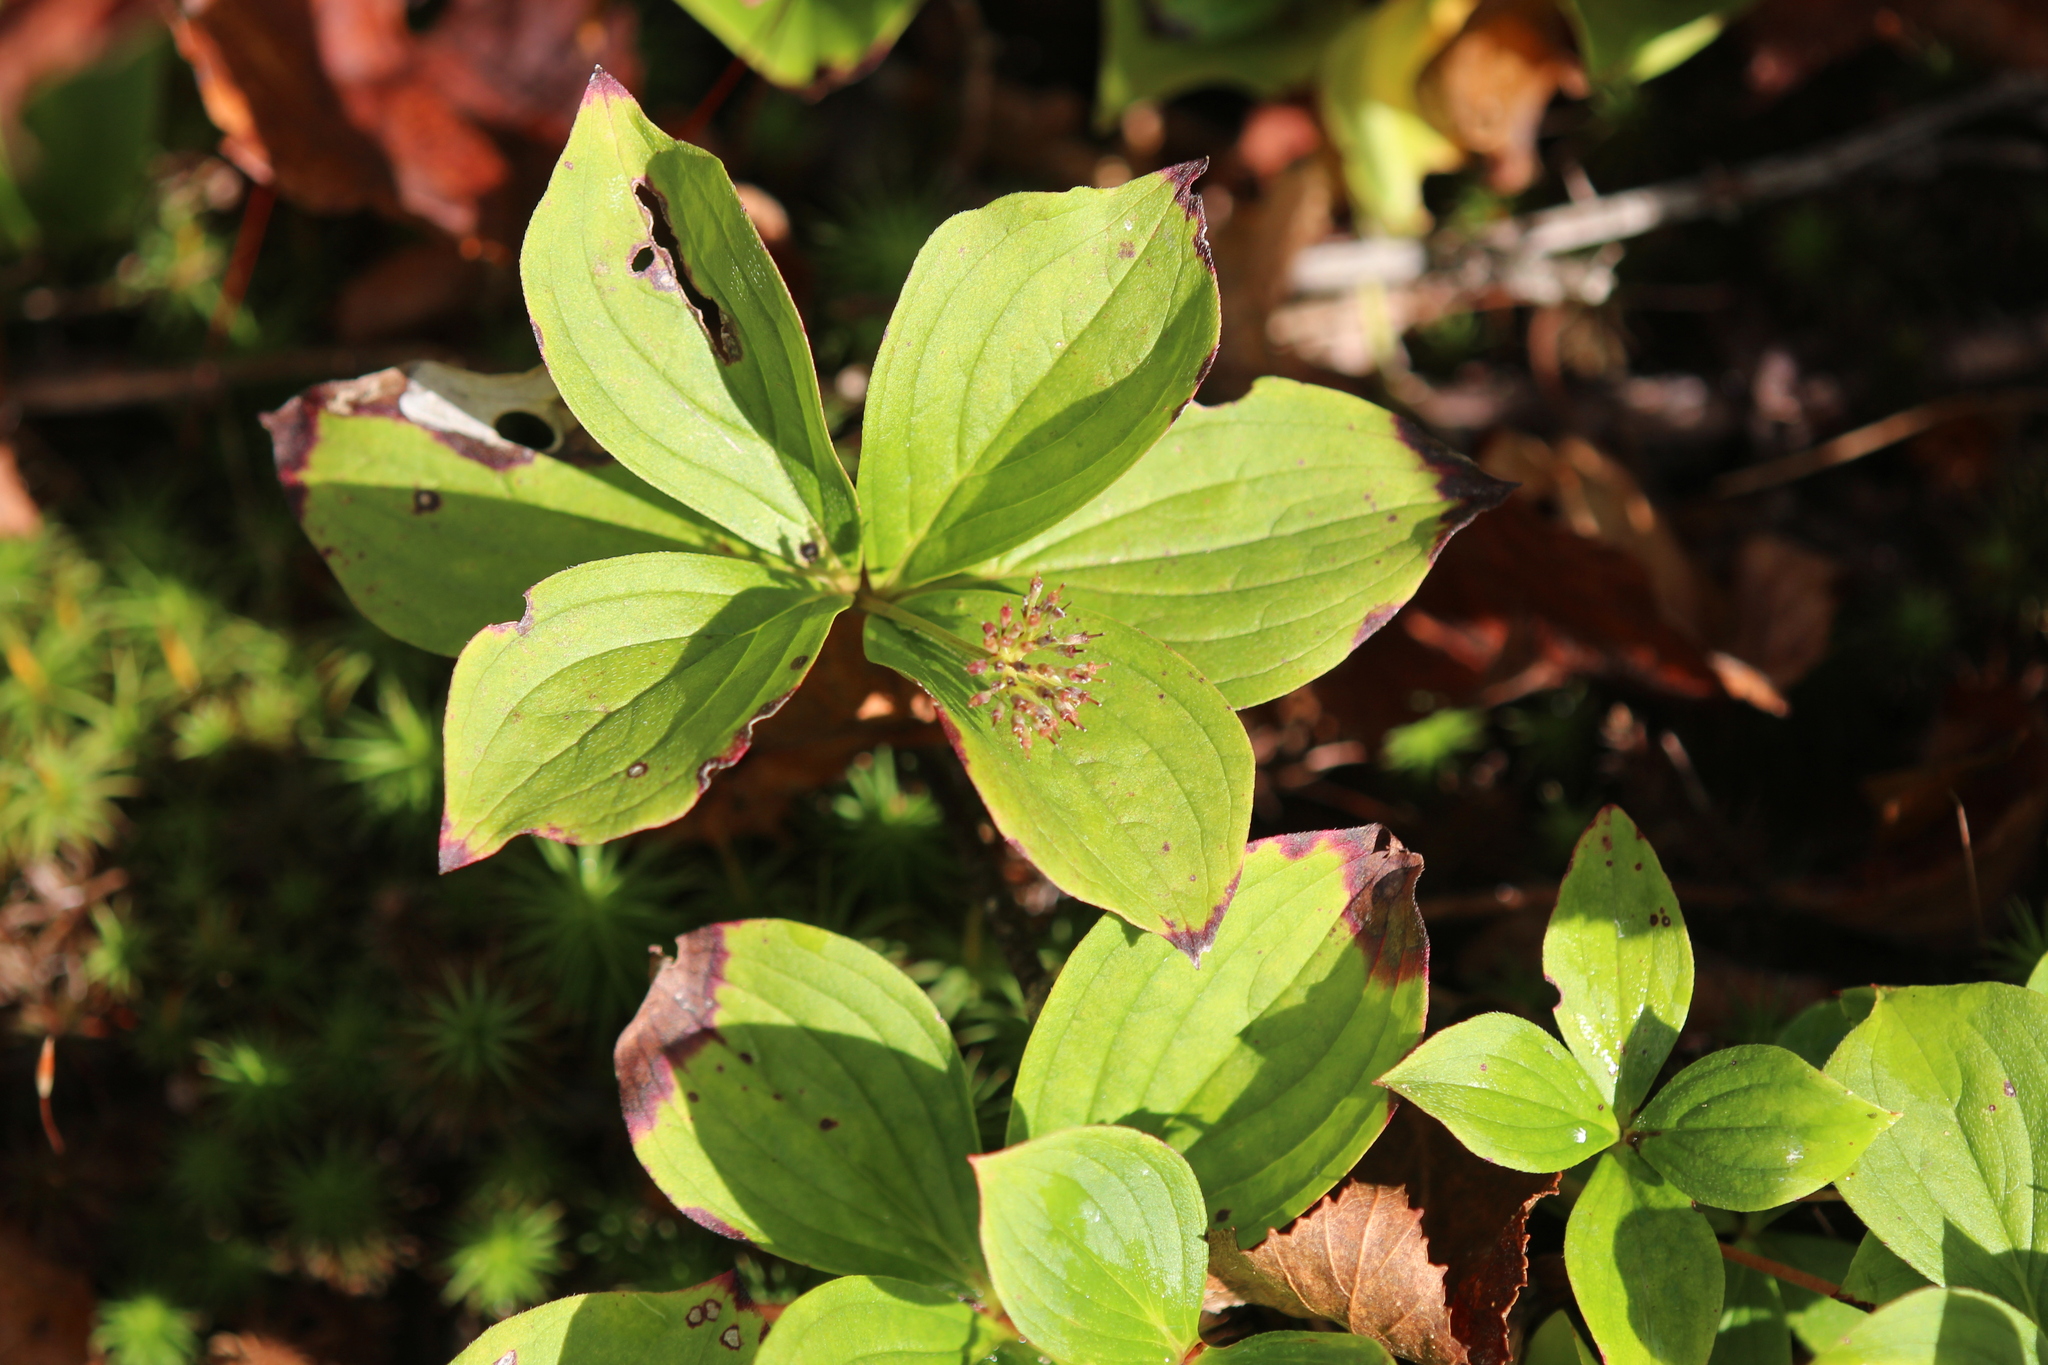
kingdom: Plantae
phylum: Tracheophyta
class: Magnoliopsida
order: Cornales
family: Cornaceae
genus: Cornus
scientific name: Cornus canadensis
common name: Creeping dogwood
